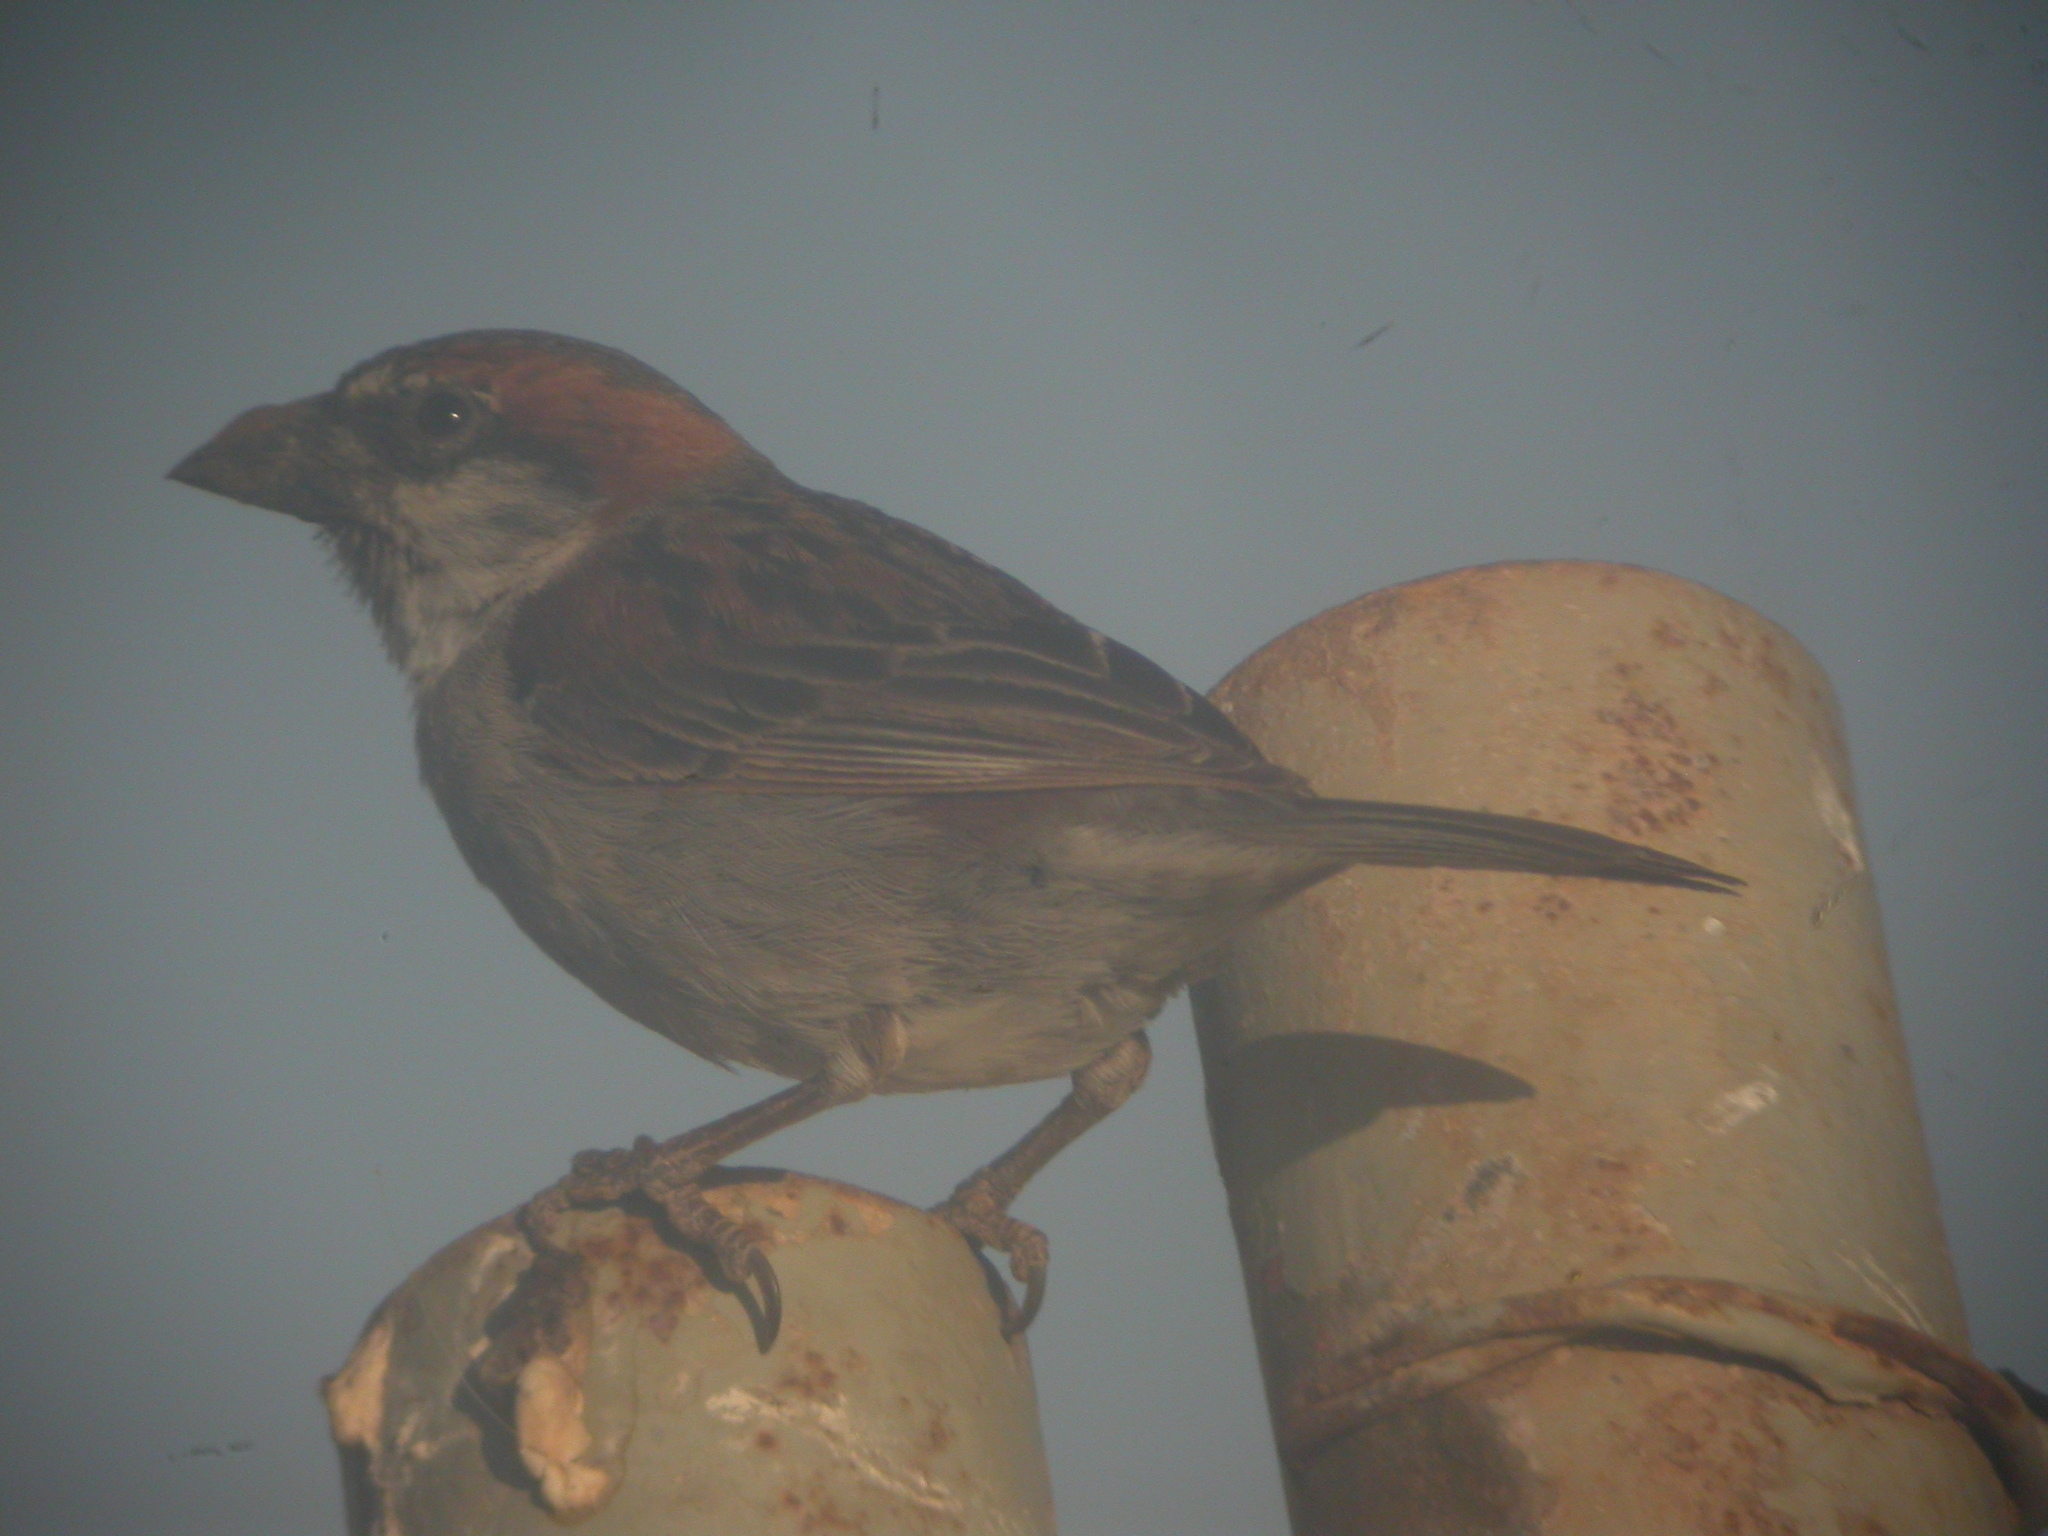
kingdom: Animalia
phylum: Chordata
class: Aves
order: Passeriformes
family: Passeridae
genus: Passer
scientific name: Passer iagoensis
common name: Iago sparrow
